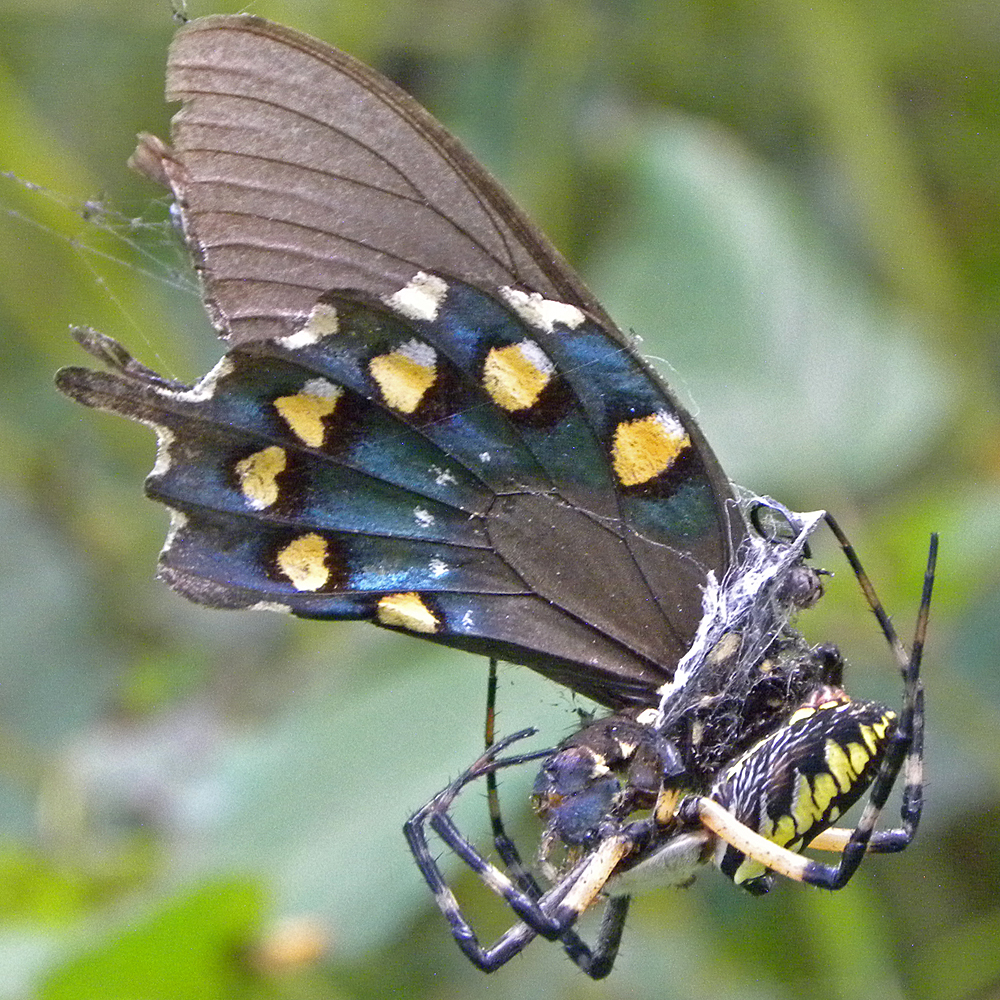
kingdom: Animalia
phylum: Arthropoda
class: Arachnida
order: Araneae
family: Araneidae
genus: Argiope
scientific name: Argiope aurantia
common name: Orb weavers
